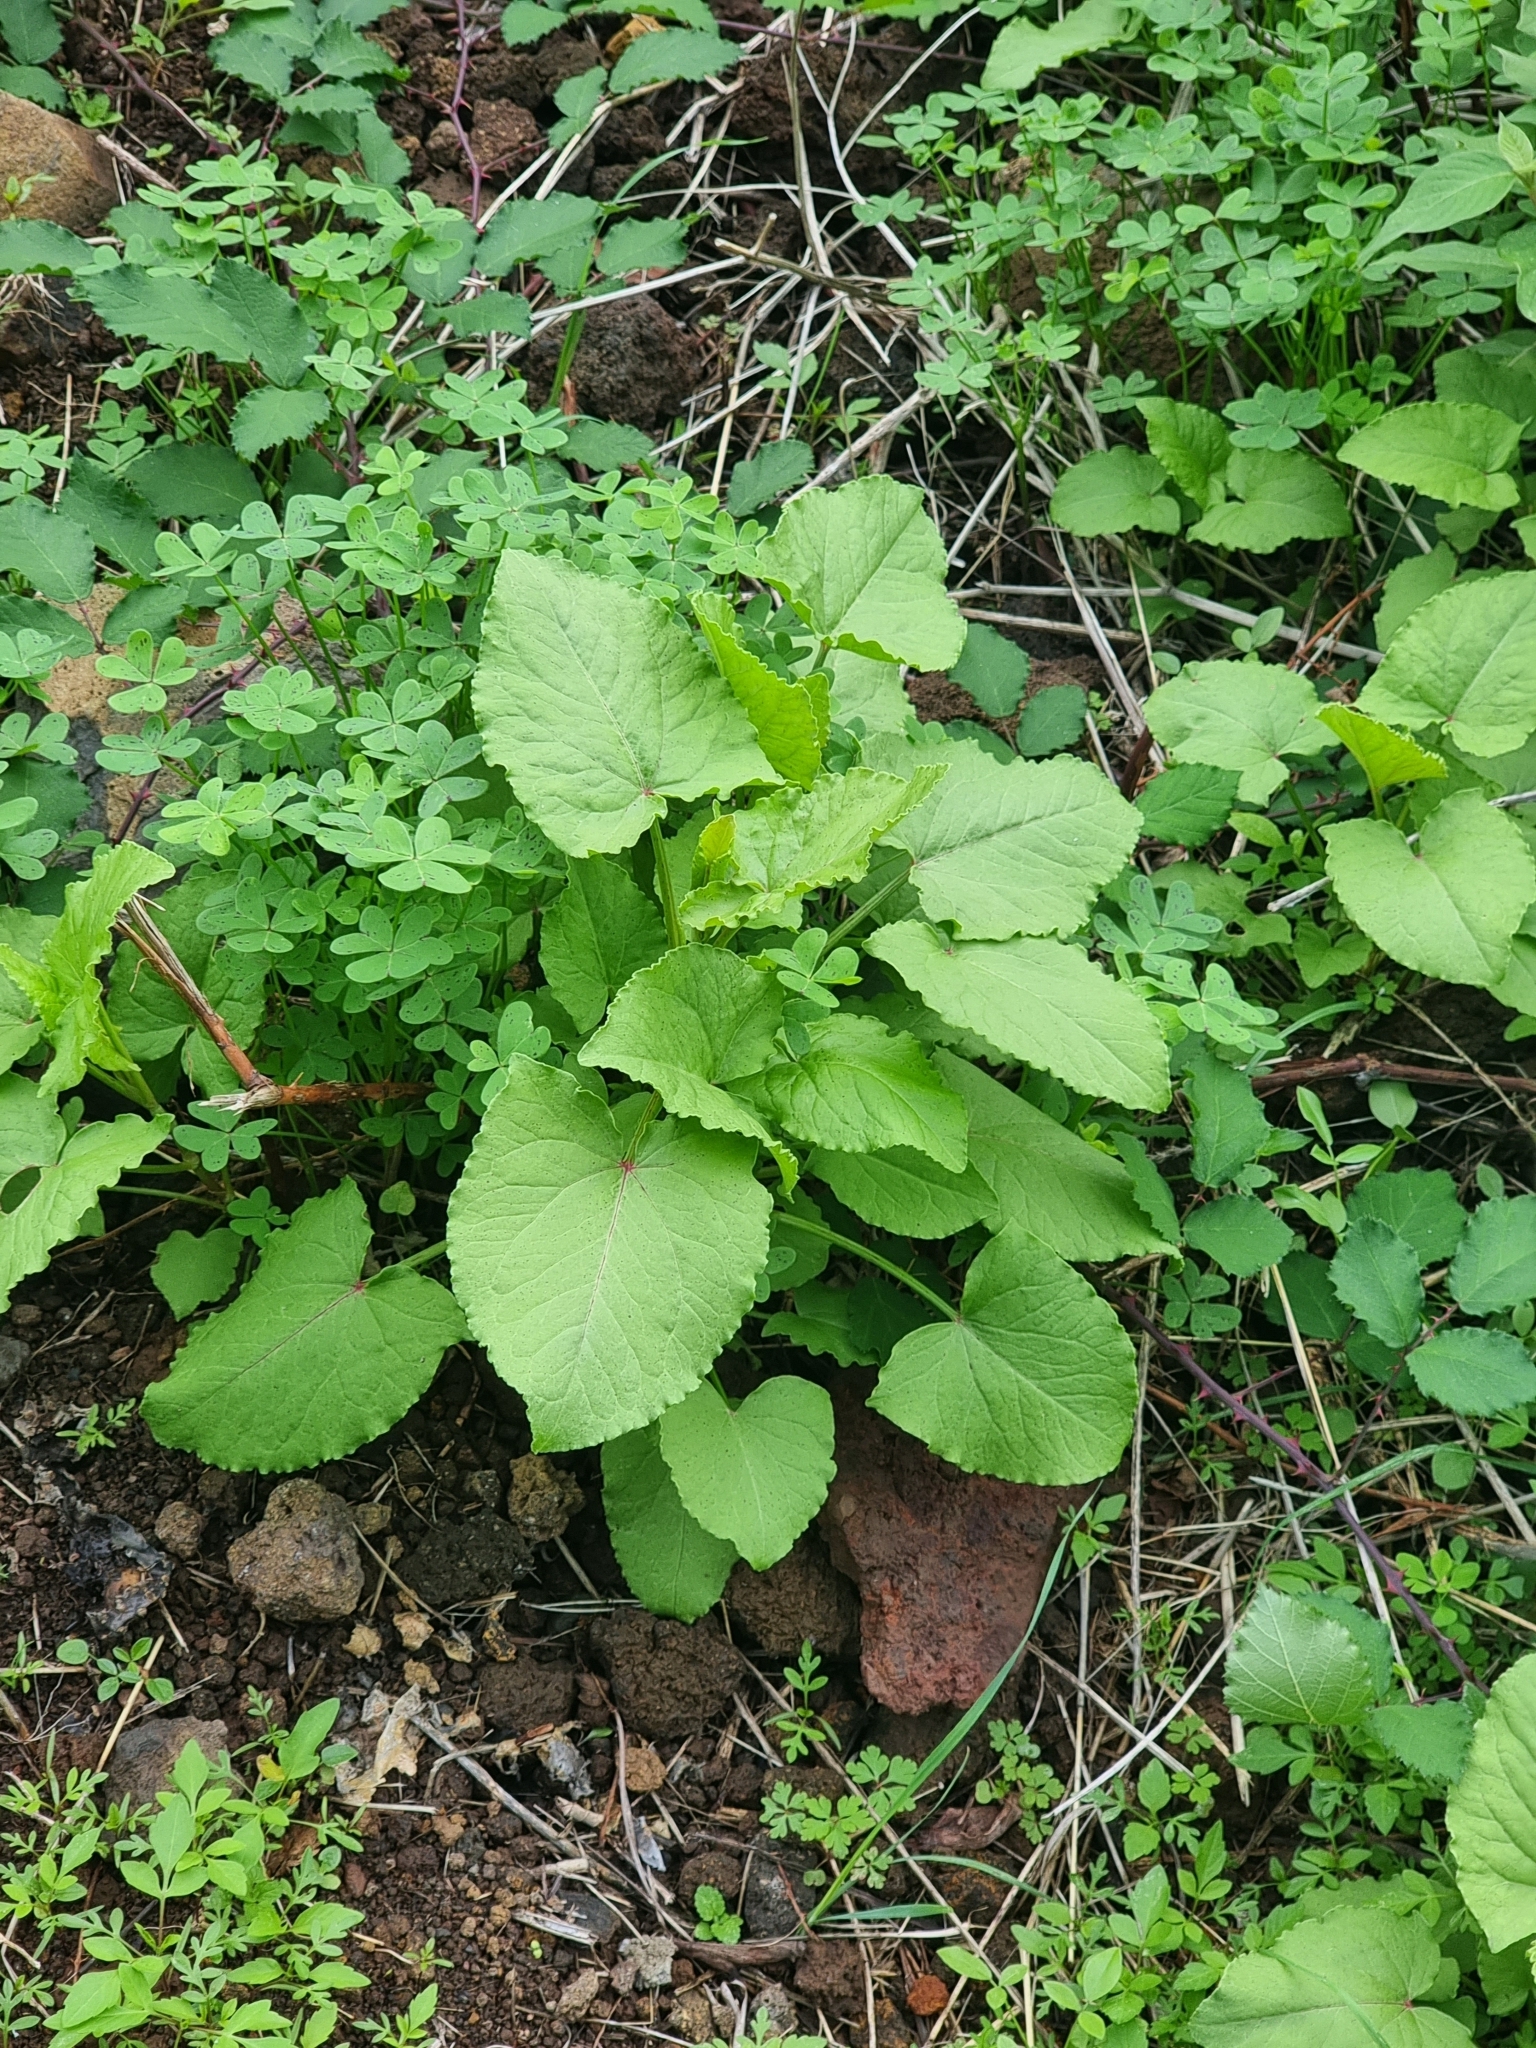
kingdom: Plantae
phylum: Tracheophyta
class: Magnoliopsida
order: Caryophyllales
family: Polygonaceae
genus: Rumex
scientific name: Rumex maderensis
